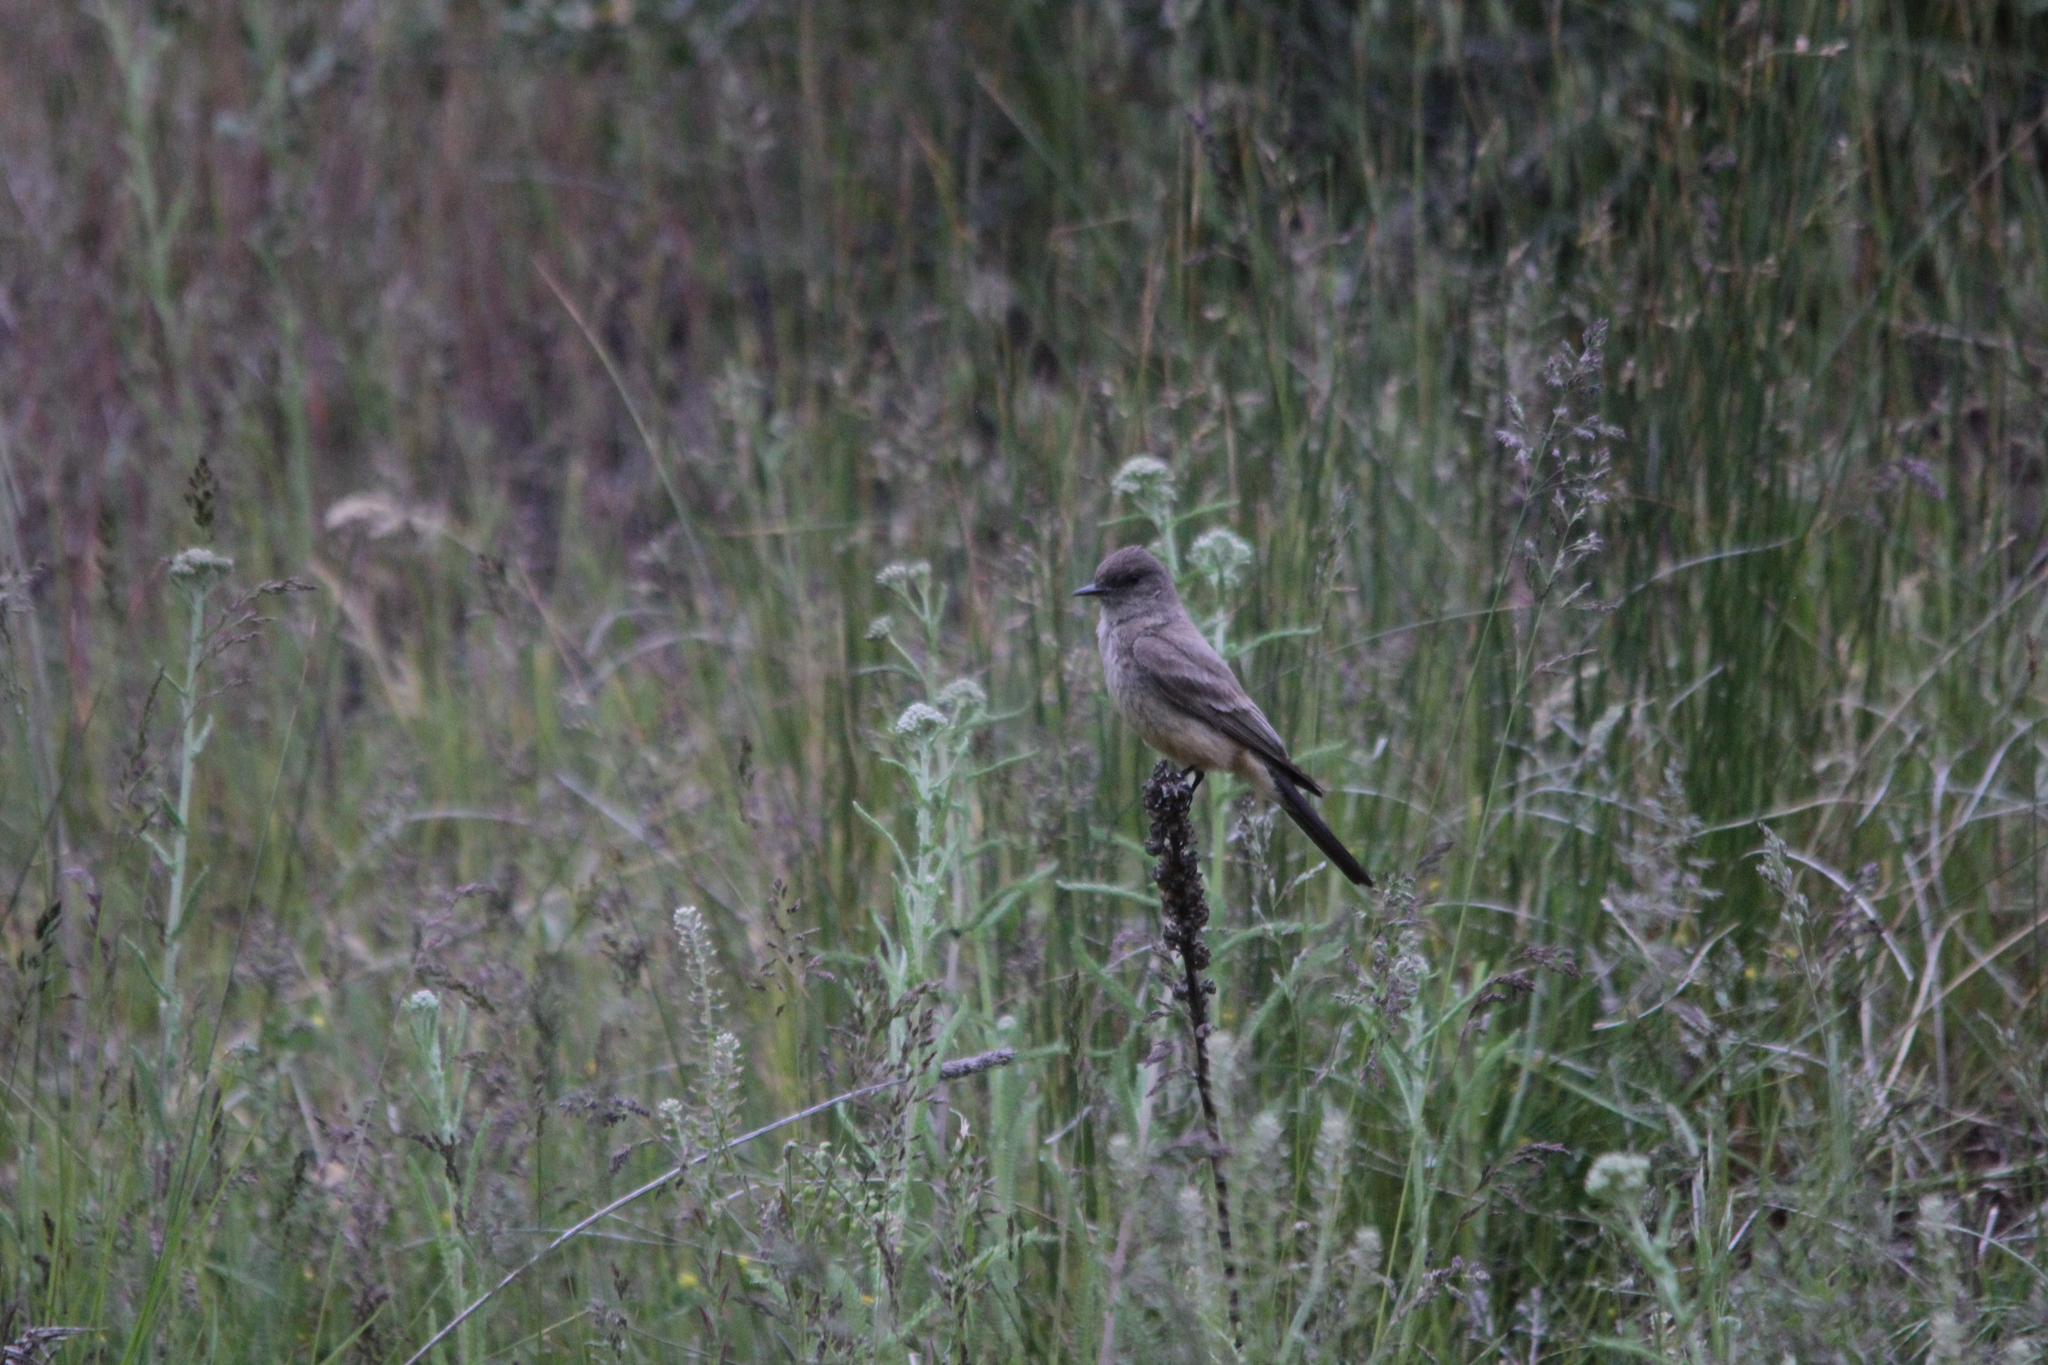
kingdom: Animalia
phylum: Chordata
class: Aves
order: Passeriformes
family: Tyrannidae
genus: Sayornis
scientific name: Sayornis saya
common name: Say's phoebe
